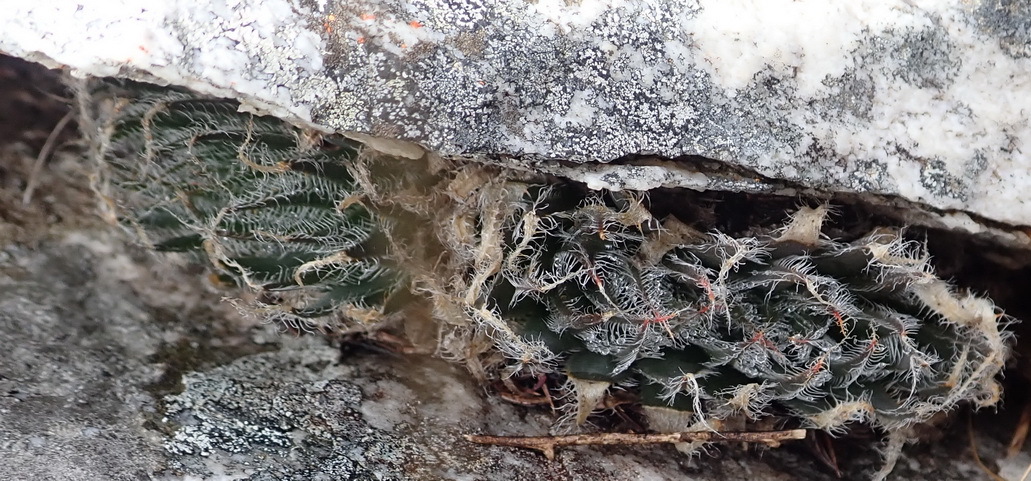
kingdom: Plantae
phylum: Tracheophyta
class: Liliopsida
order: Asparagales
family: Asphodelaceae
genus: Haworthia
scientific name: Haworthia arachnoidea
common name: Cobweb-aloe
